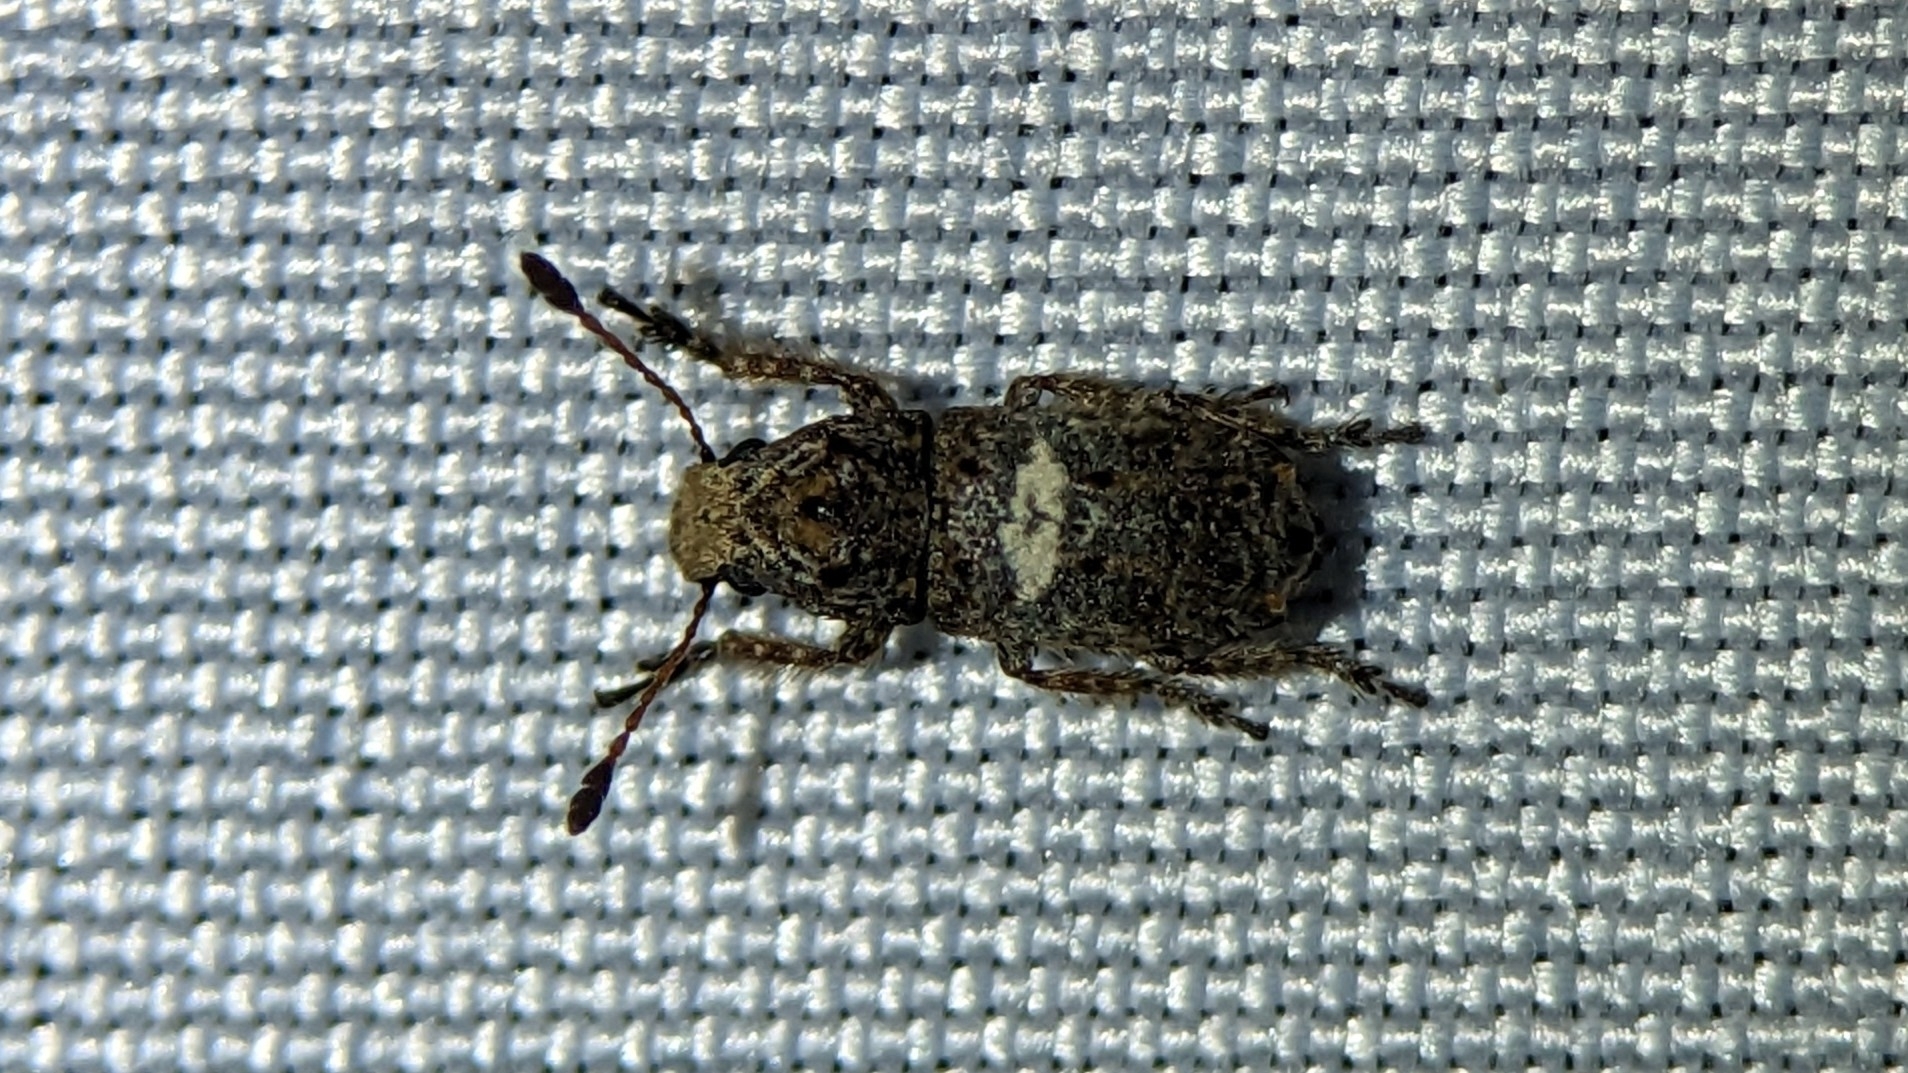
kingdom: Animalia
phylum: Arthropoda
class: Insecta
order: Coleoptera
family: Anthribidae
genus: Toxonotus
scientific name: Toxonotus cornutus
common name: Fungus weevil
